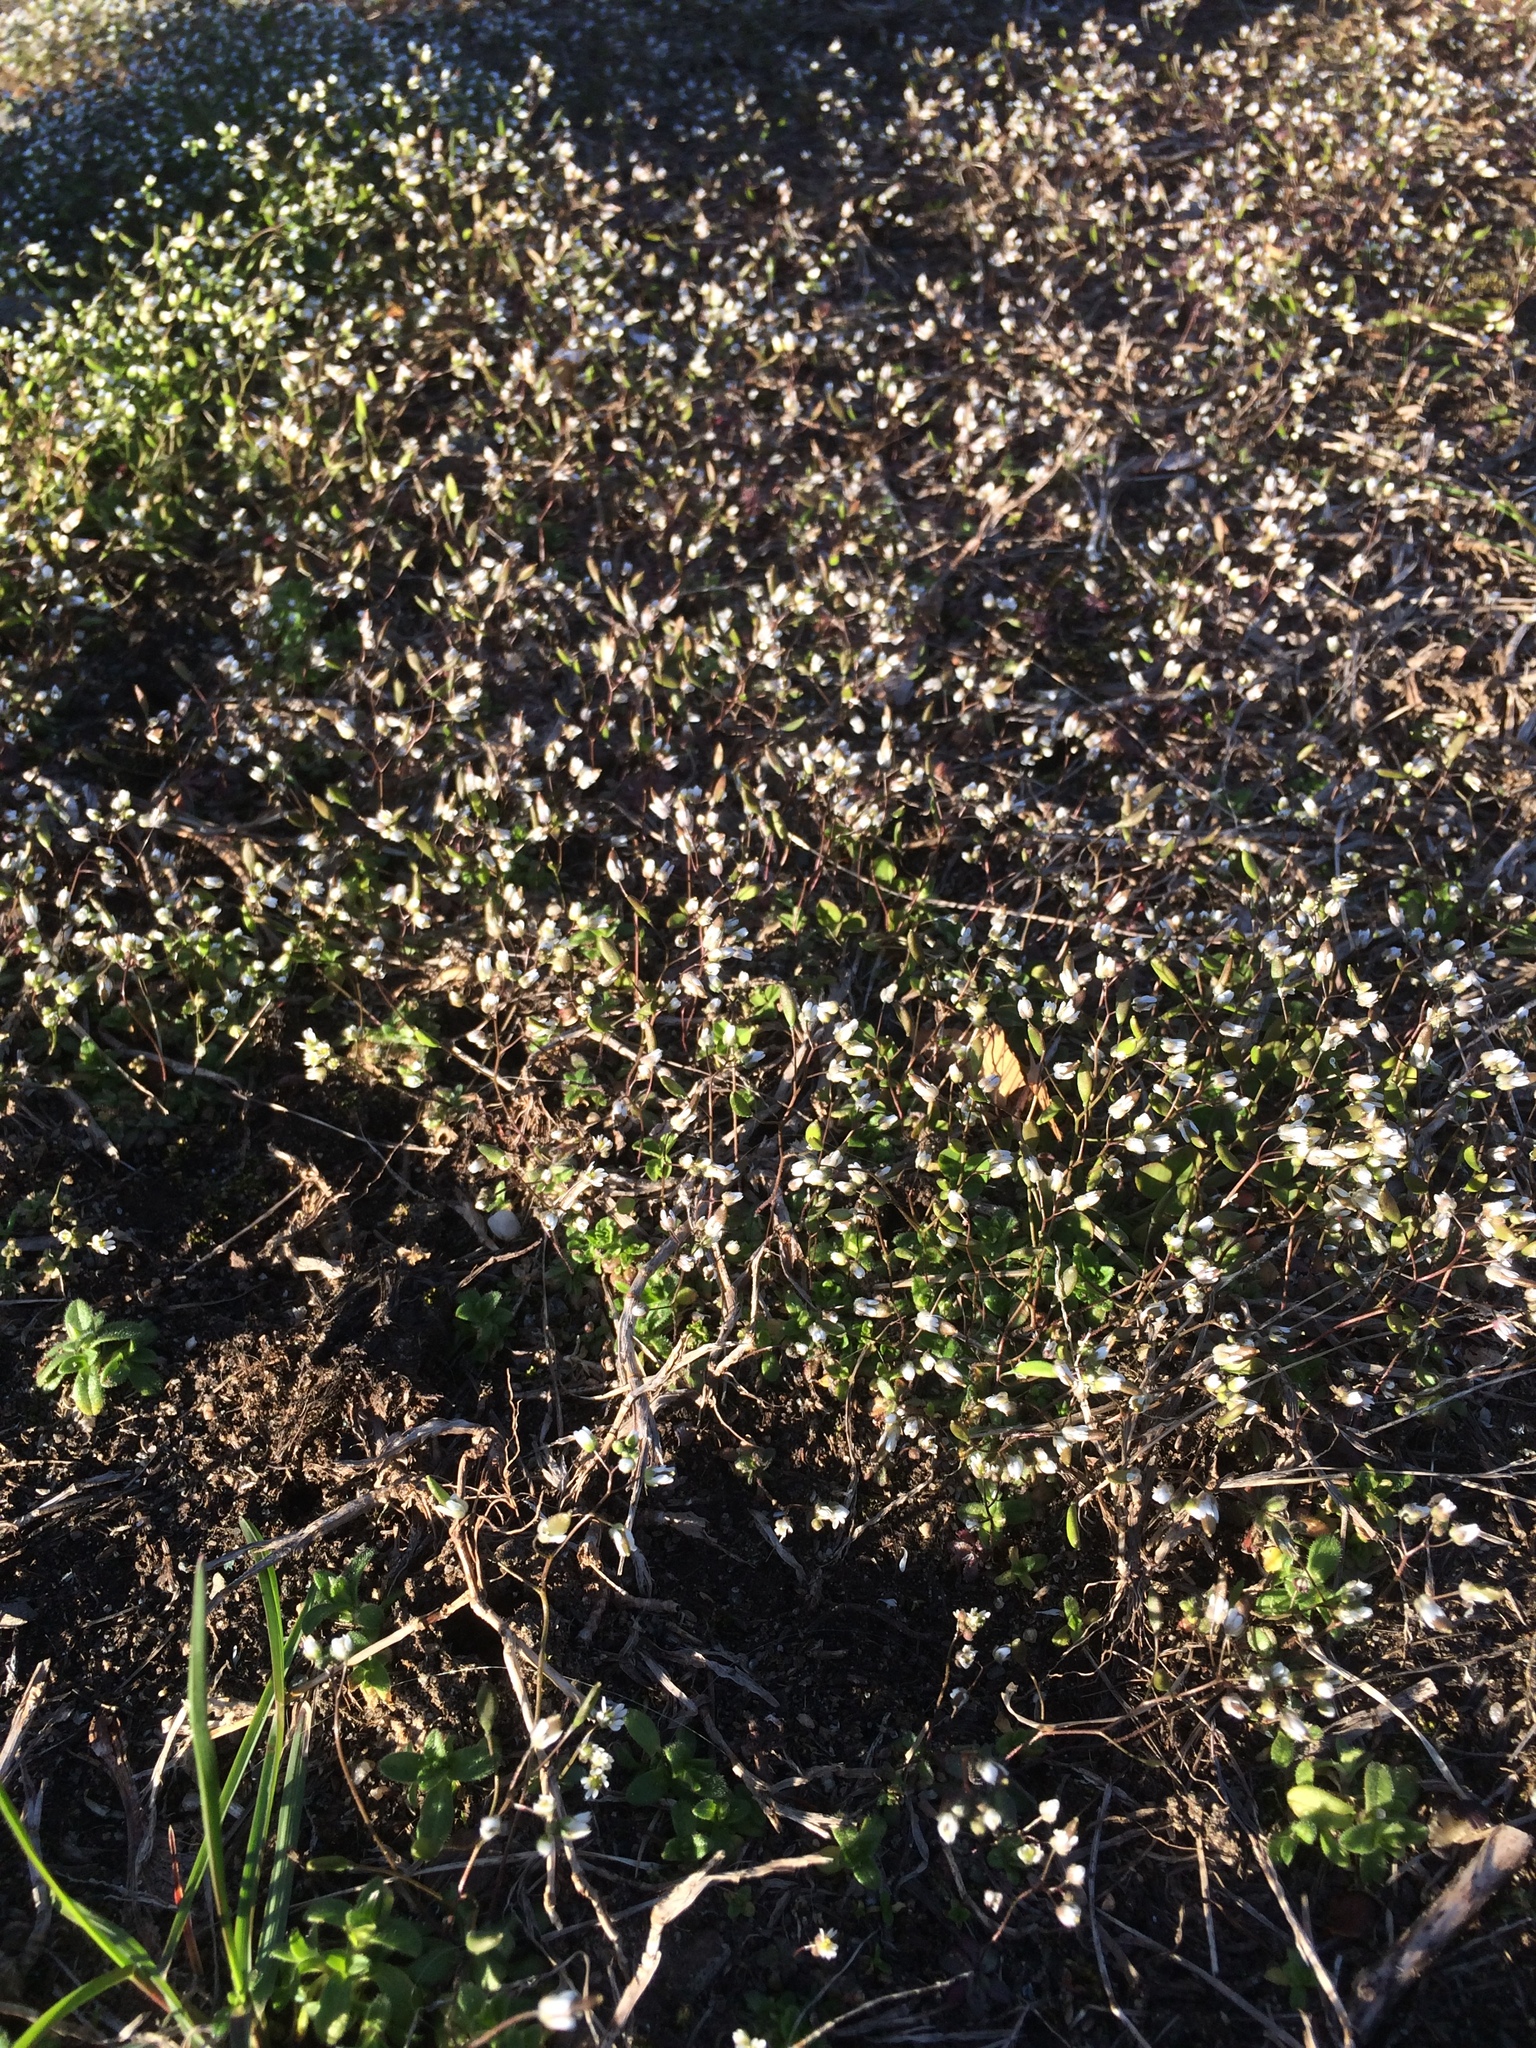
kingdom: Plantae
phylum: Tracheophyta
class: Magnoliopsida
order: Brassicales
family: Brassicaceae
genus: Draba
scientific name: Draba verna
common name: Spring draba
